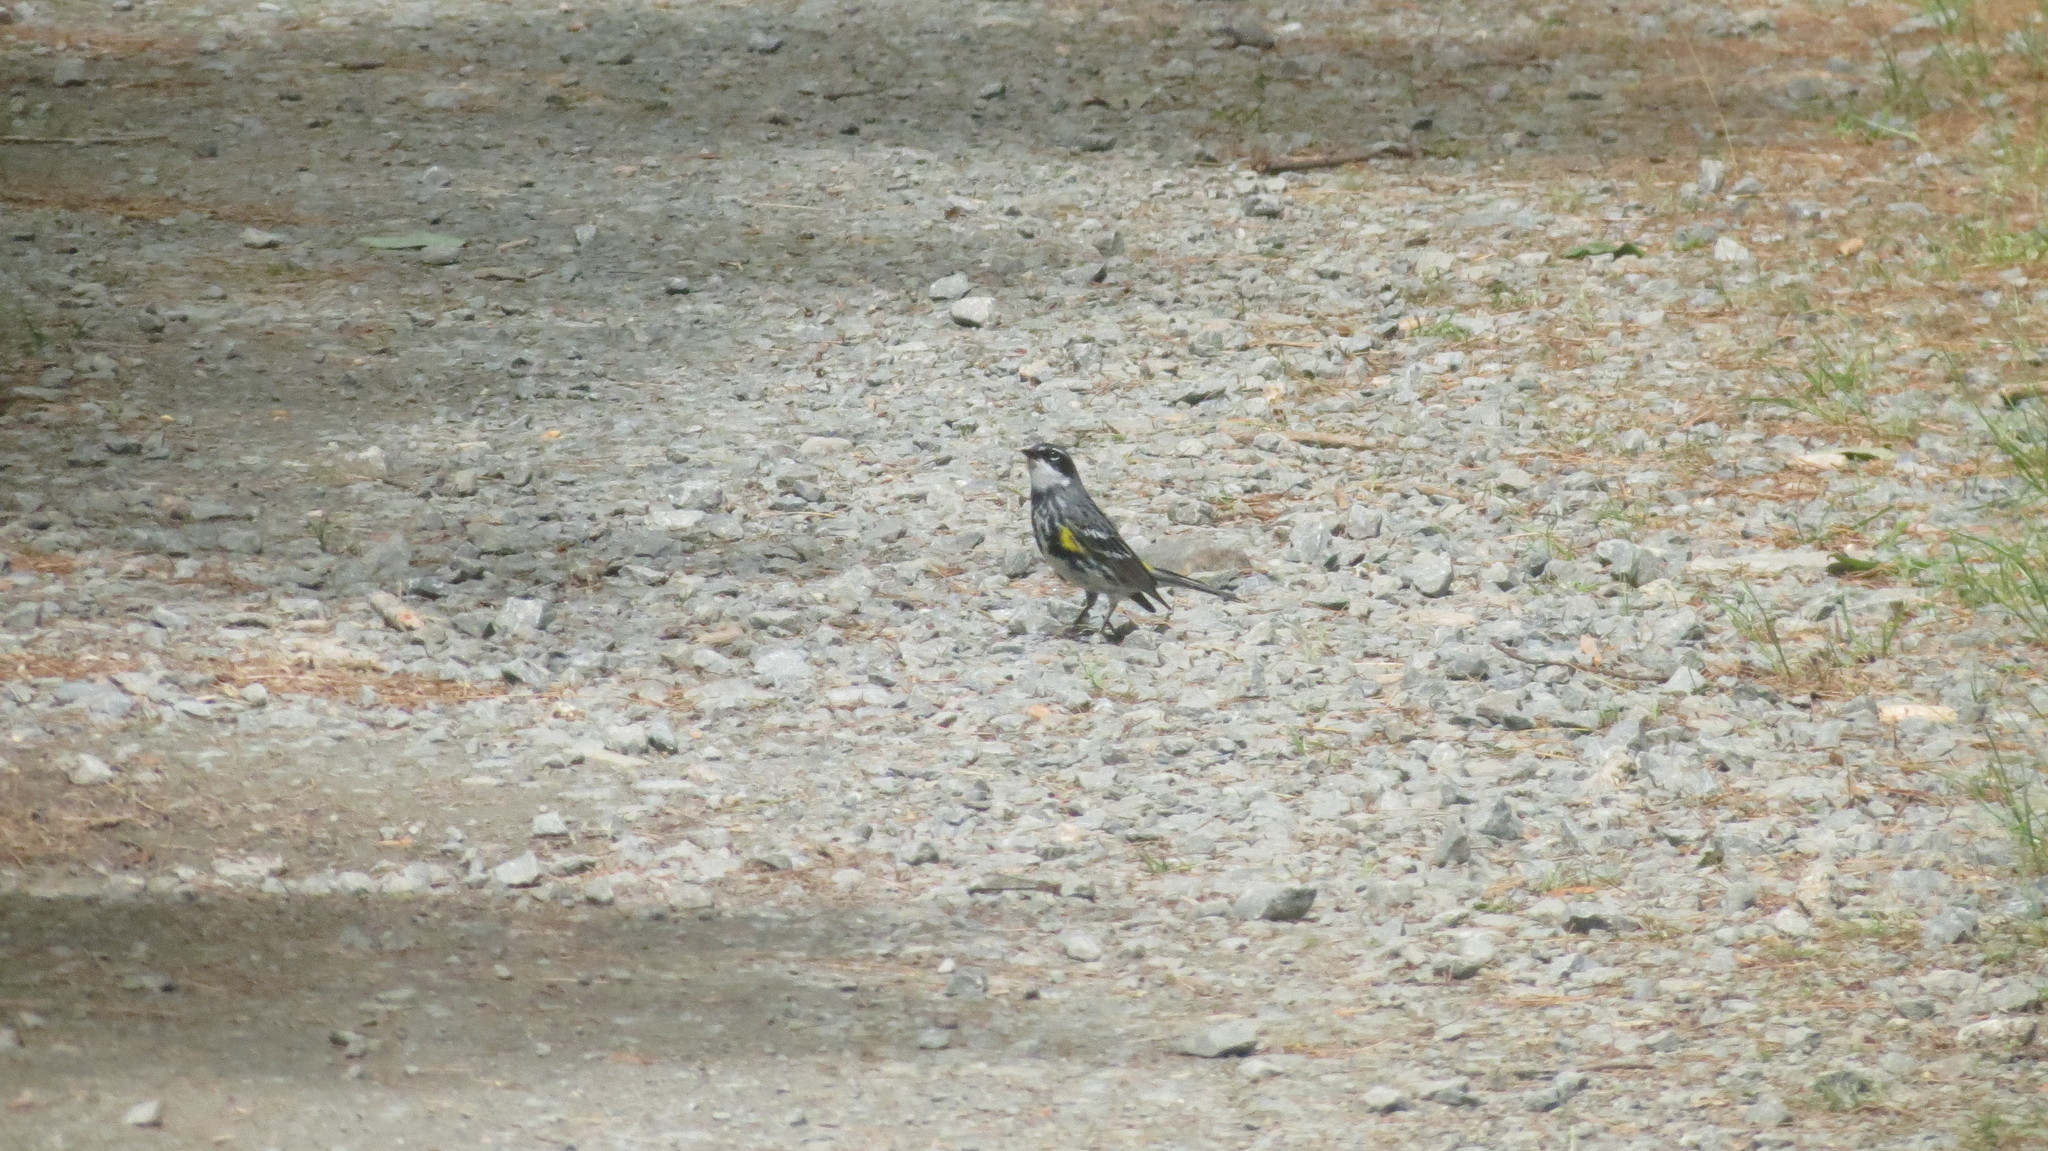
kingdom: Animalia
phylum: Chordata
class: Aves
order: Passeriformes
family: Parulidae
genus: Setophaga
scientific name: Setophaga coronata
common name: Myrtle warbler
